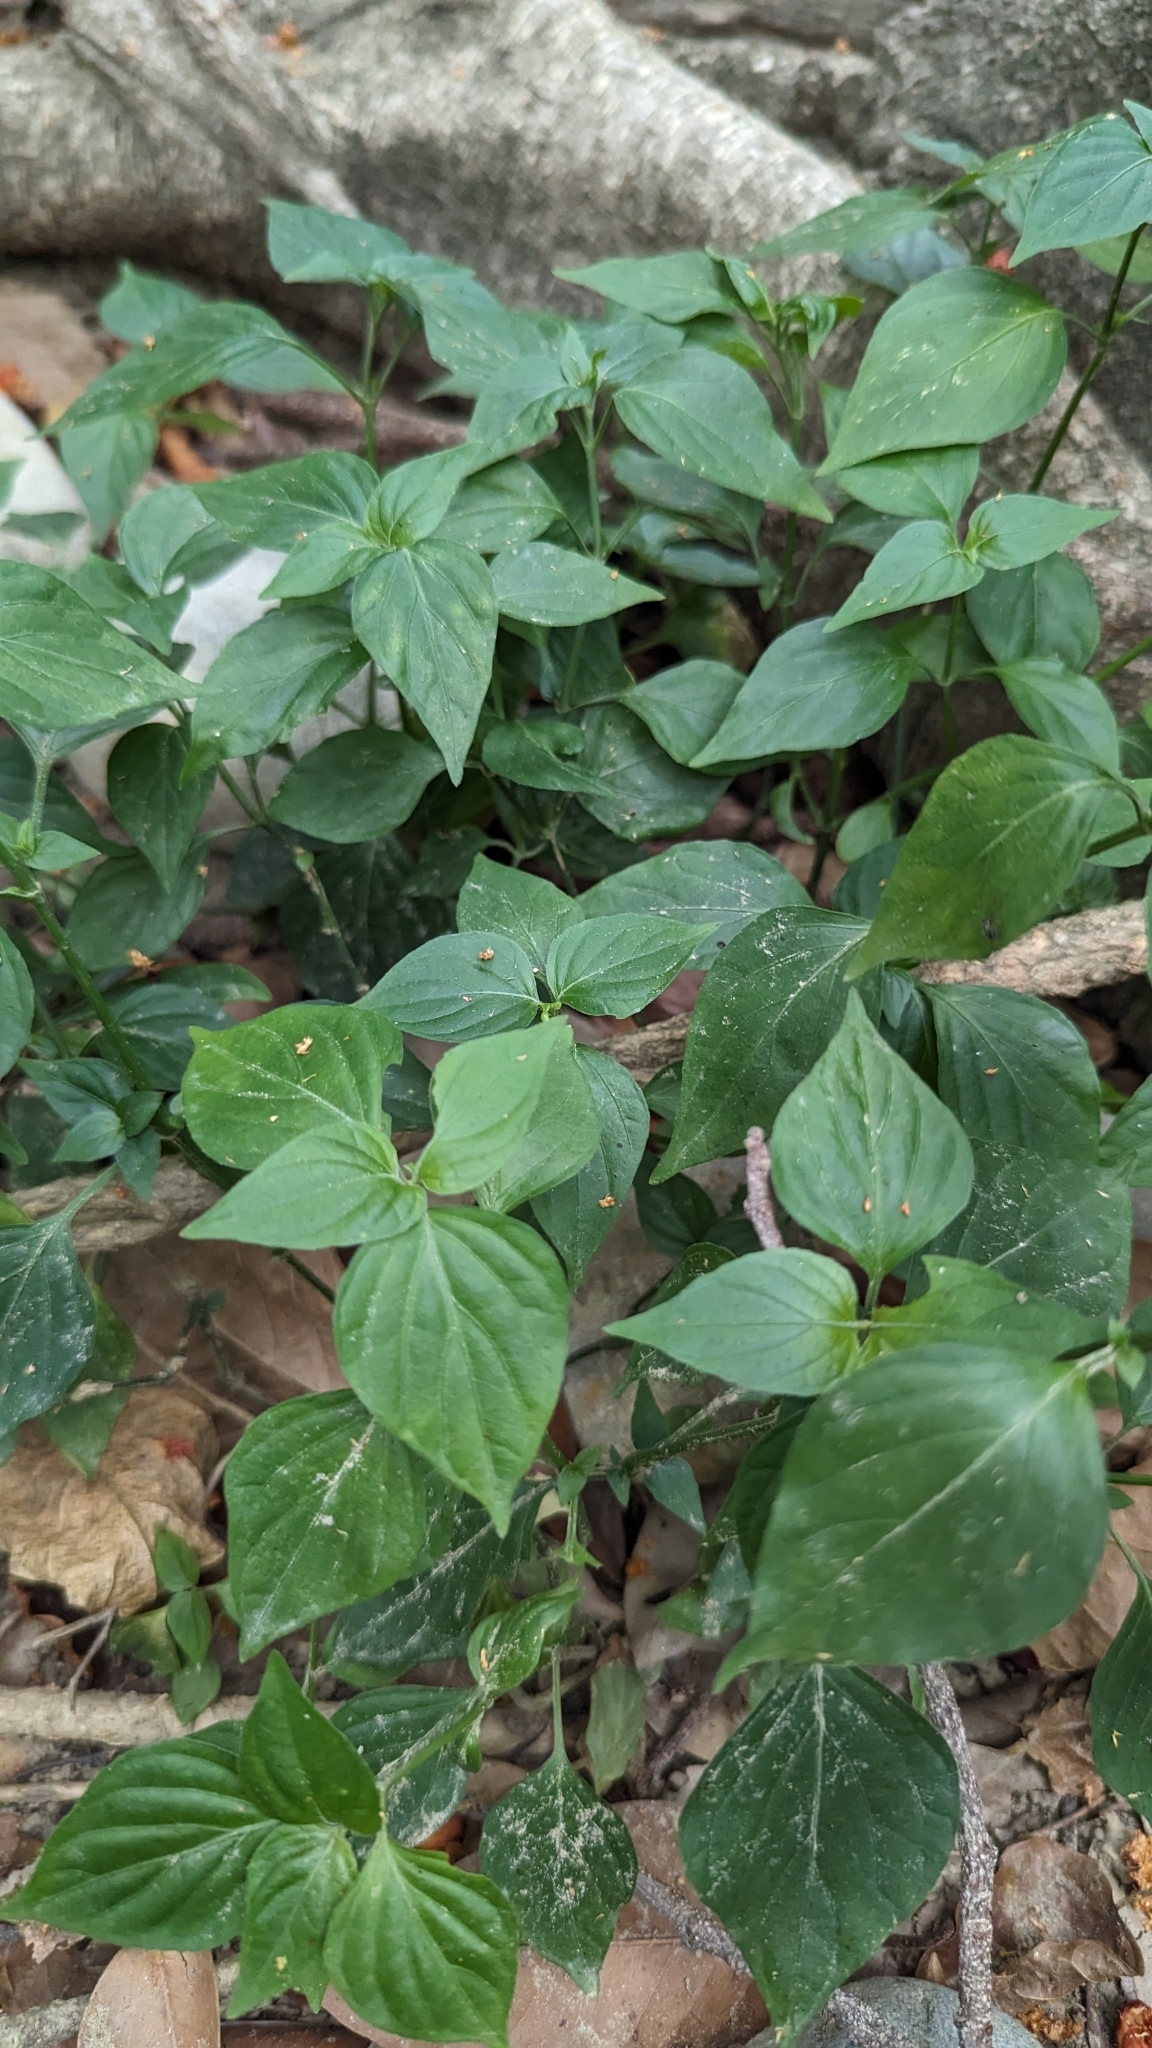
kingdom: Plantae
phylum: Tracheophyta
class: Magnoliopsida
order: Lamiales
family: Acanthaceae
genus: Dicliptera
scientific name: Dicliptera chinensis
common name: Chinese foldwing
